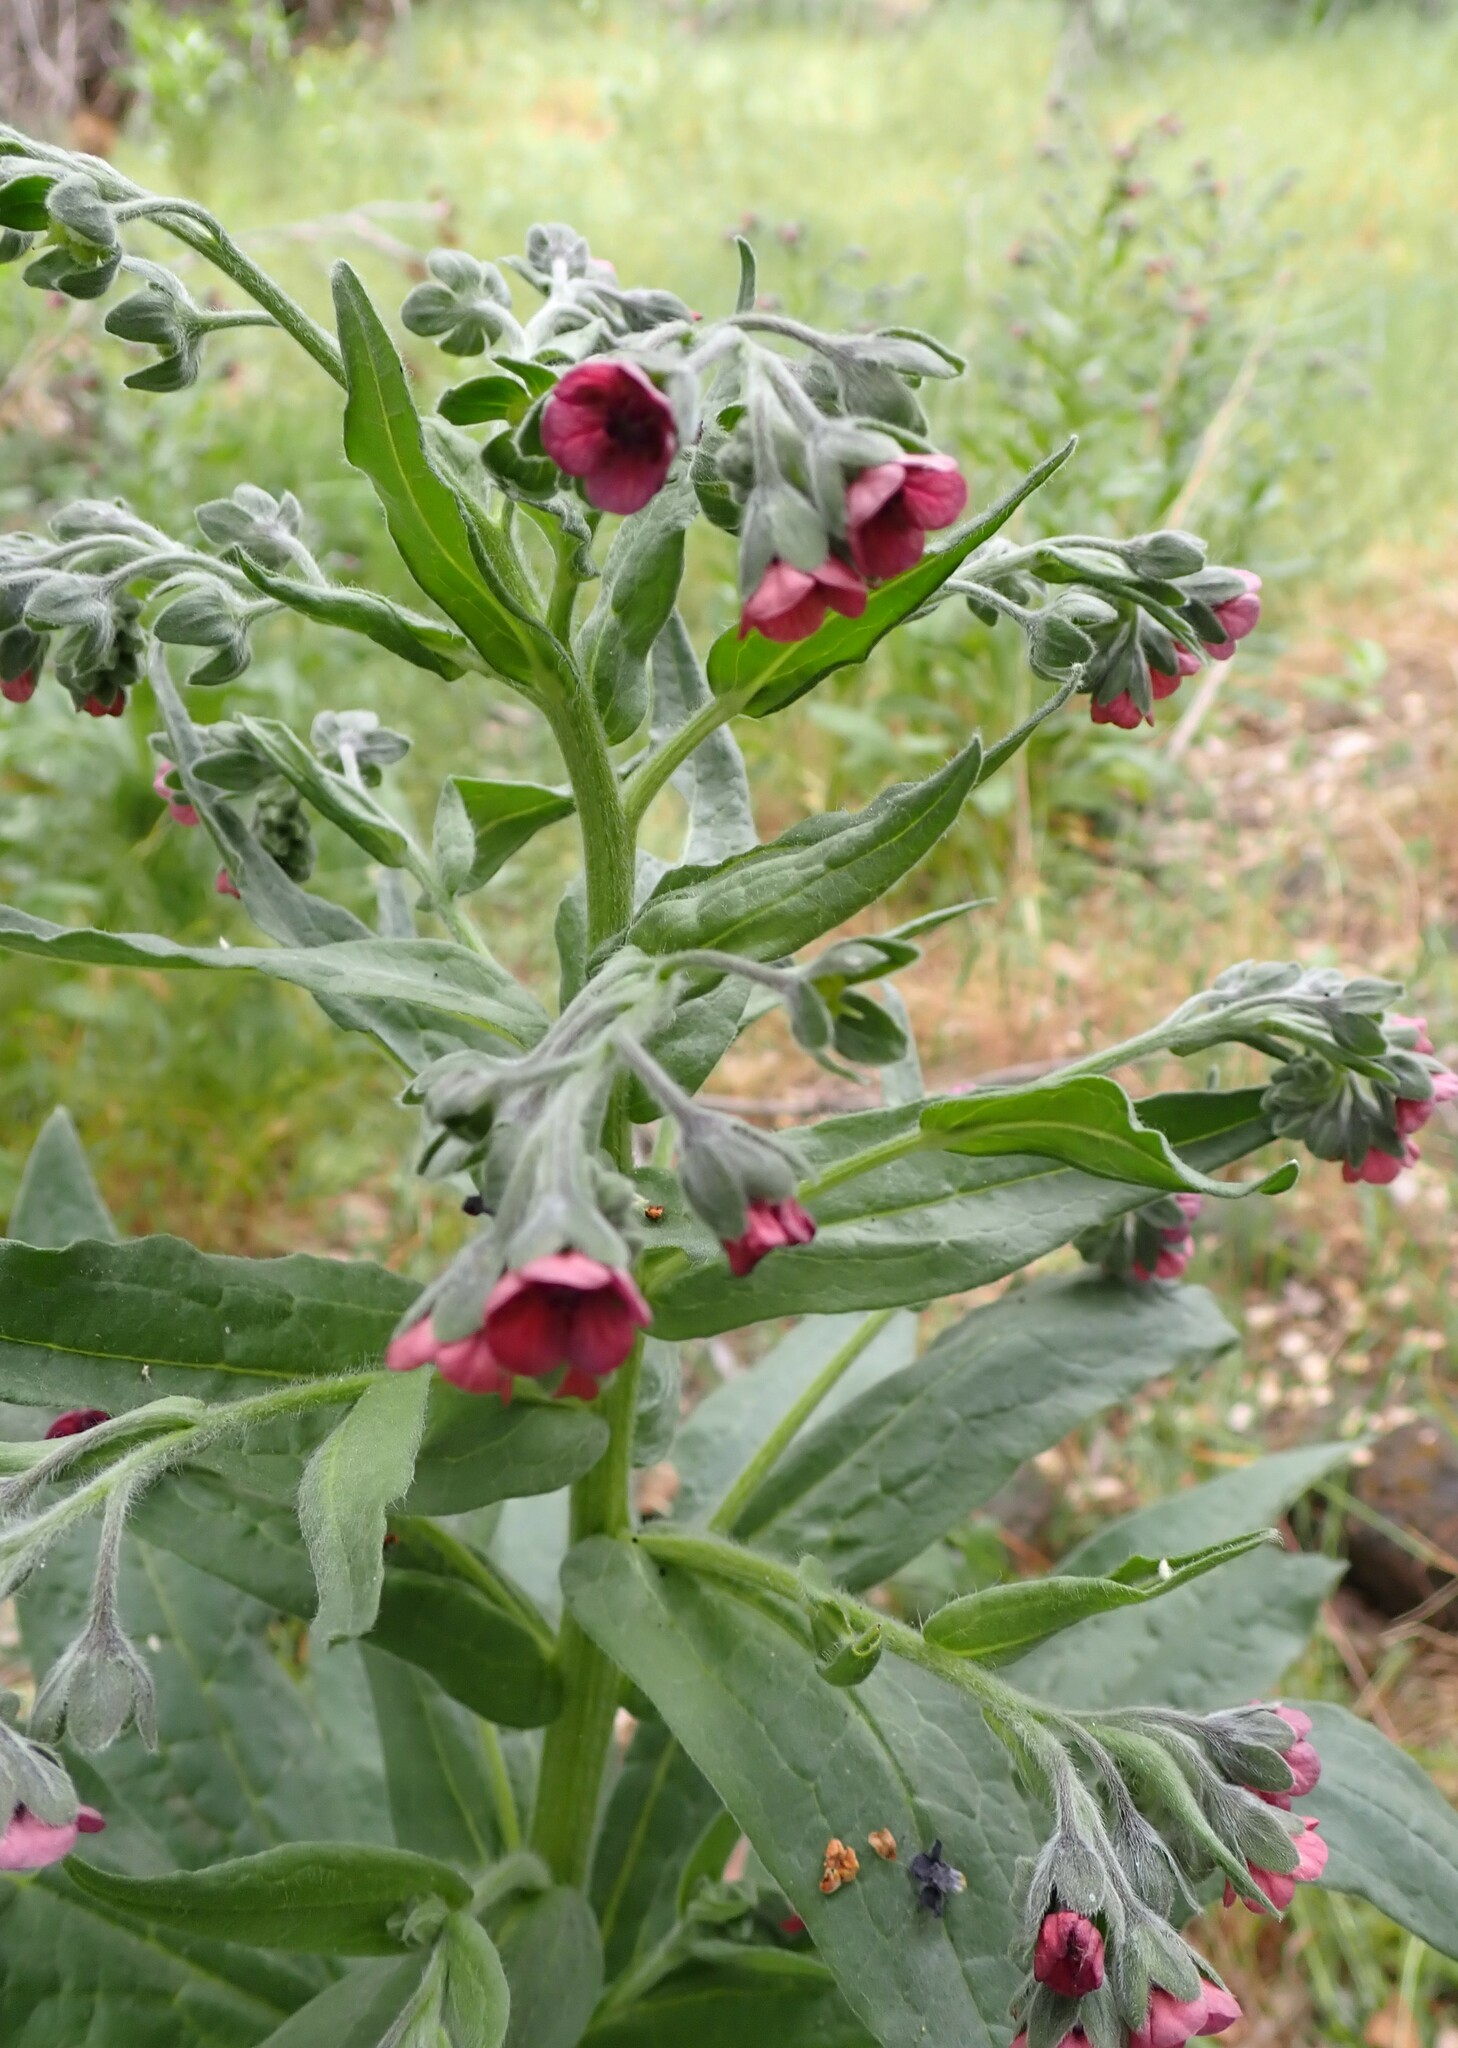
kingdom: Plantae
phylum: Tracheophyta
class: Magnoliopsida
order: Boraginales
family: Boraginaceae
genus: Cynoglossum
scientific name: Cynoglossum officinale
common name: Hound's-tongue
